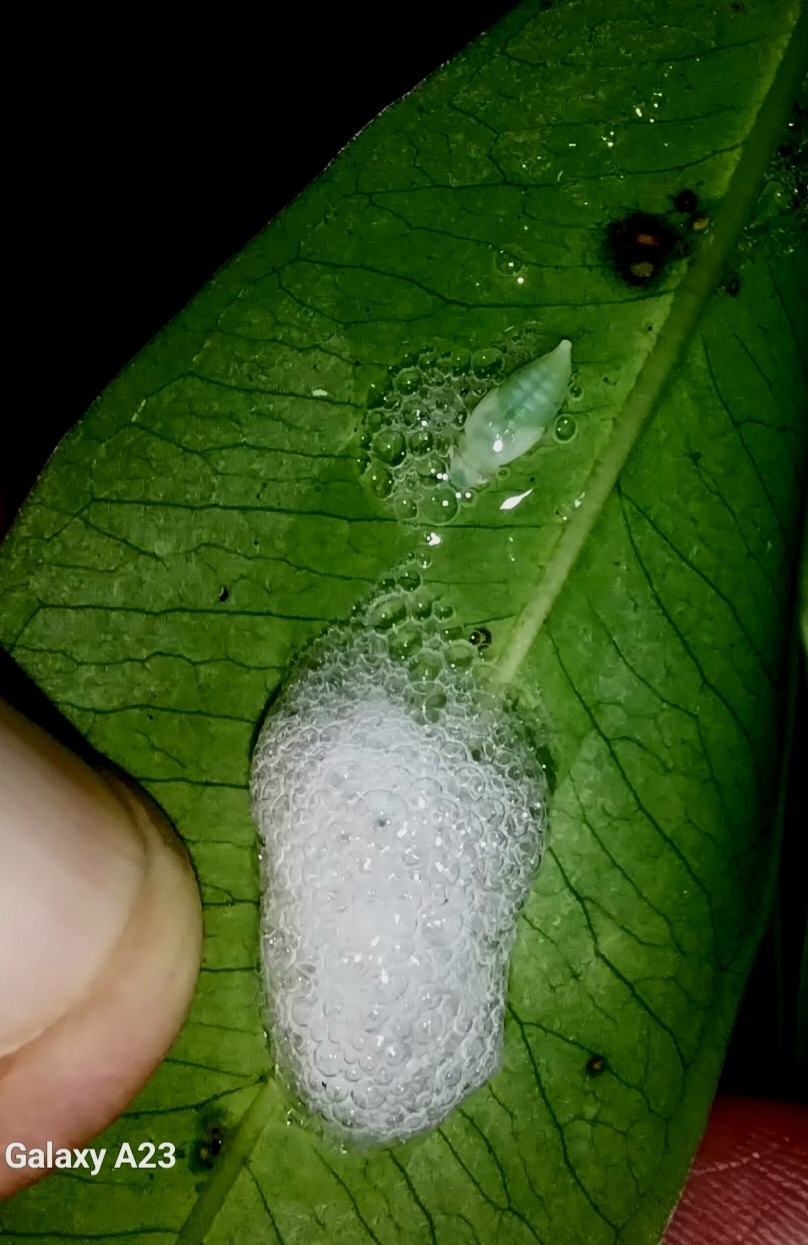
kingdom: Animalia
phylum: Arthropoda
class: Insecta
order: Hemiptera
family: Aphrophoridae
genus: Lallemandana
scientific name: Lallemandana rarotongae
